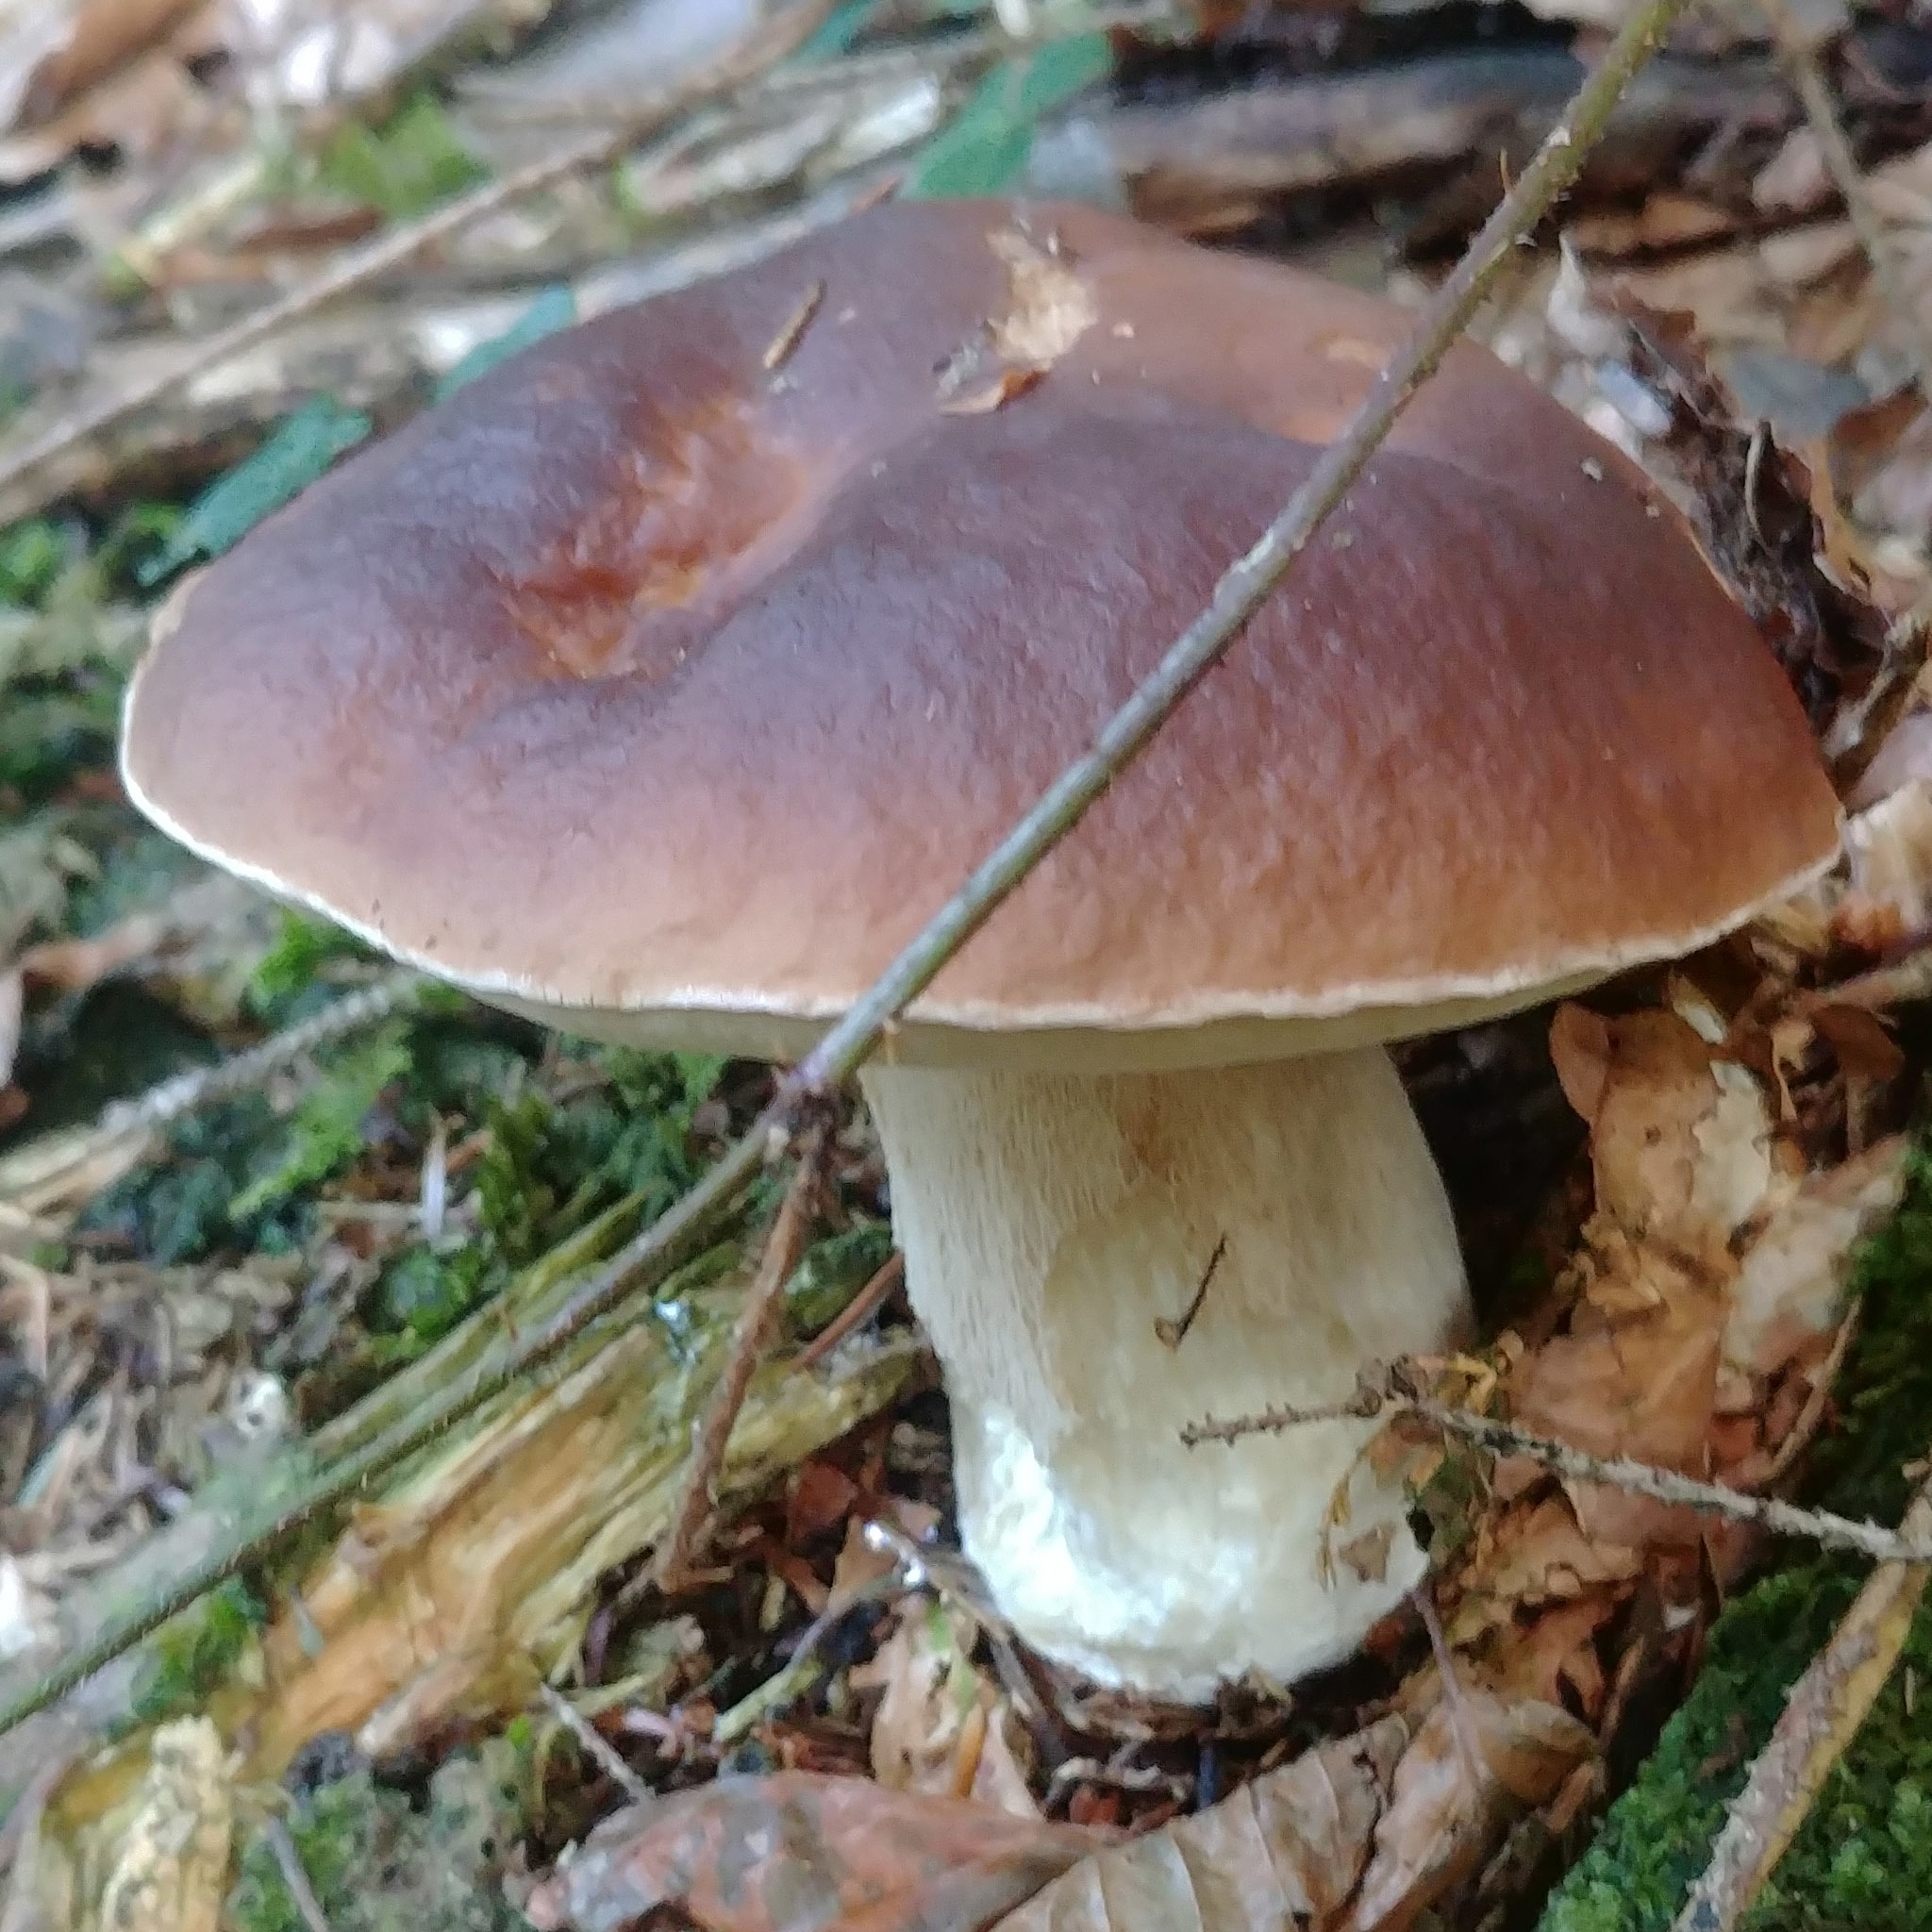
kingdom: Fungi
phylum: Basidiomycota
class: Agaricomycetes
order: Boletales
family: Boletaceae
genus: Boletus
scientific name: Boletus edulis
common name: Cep
